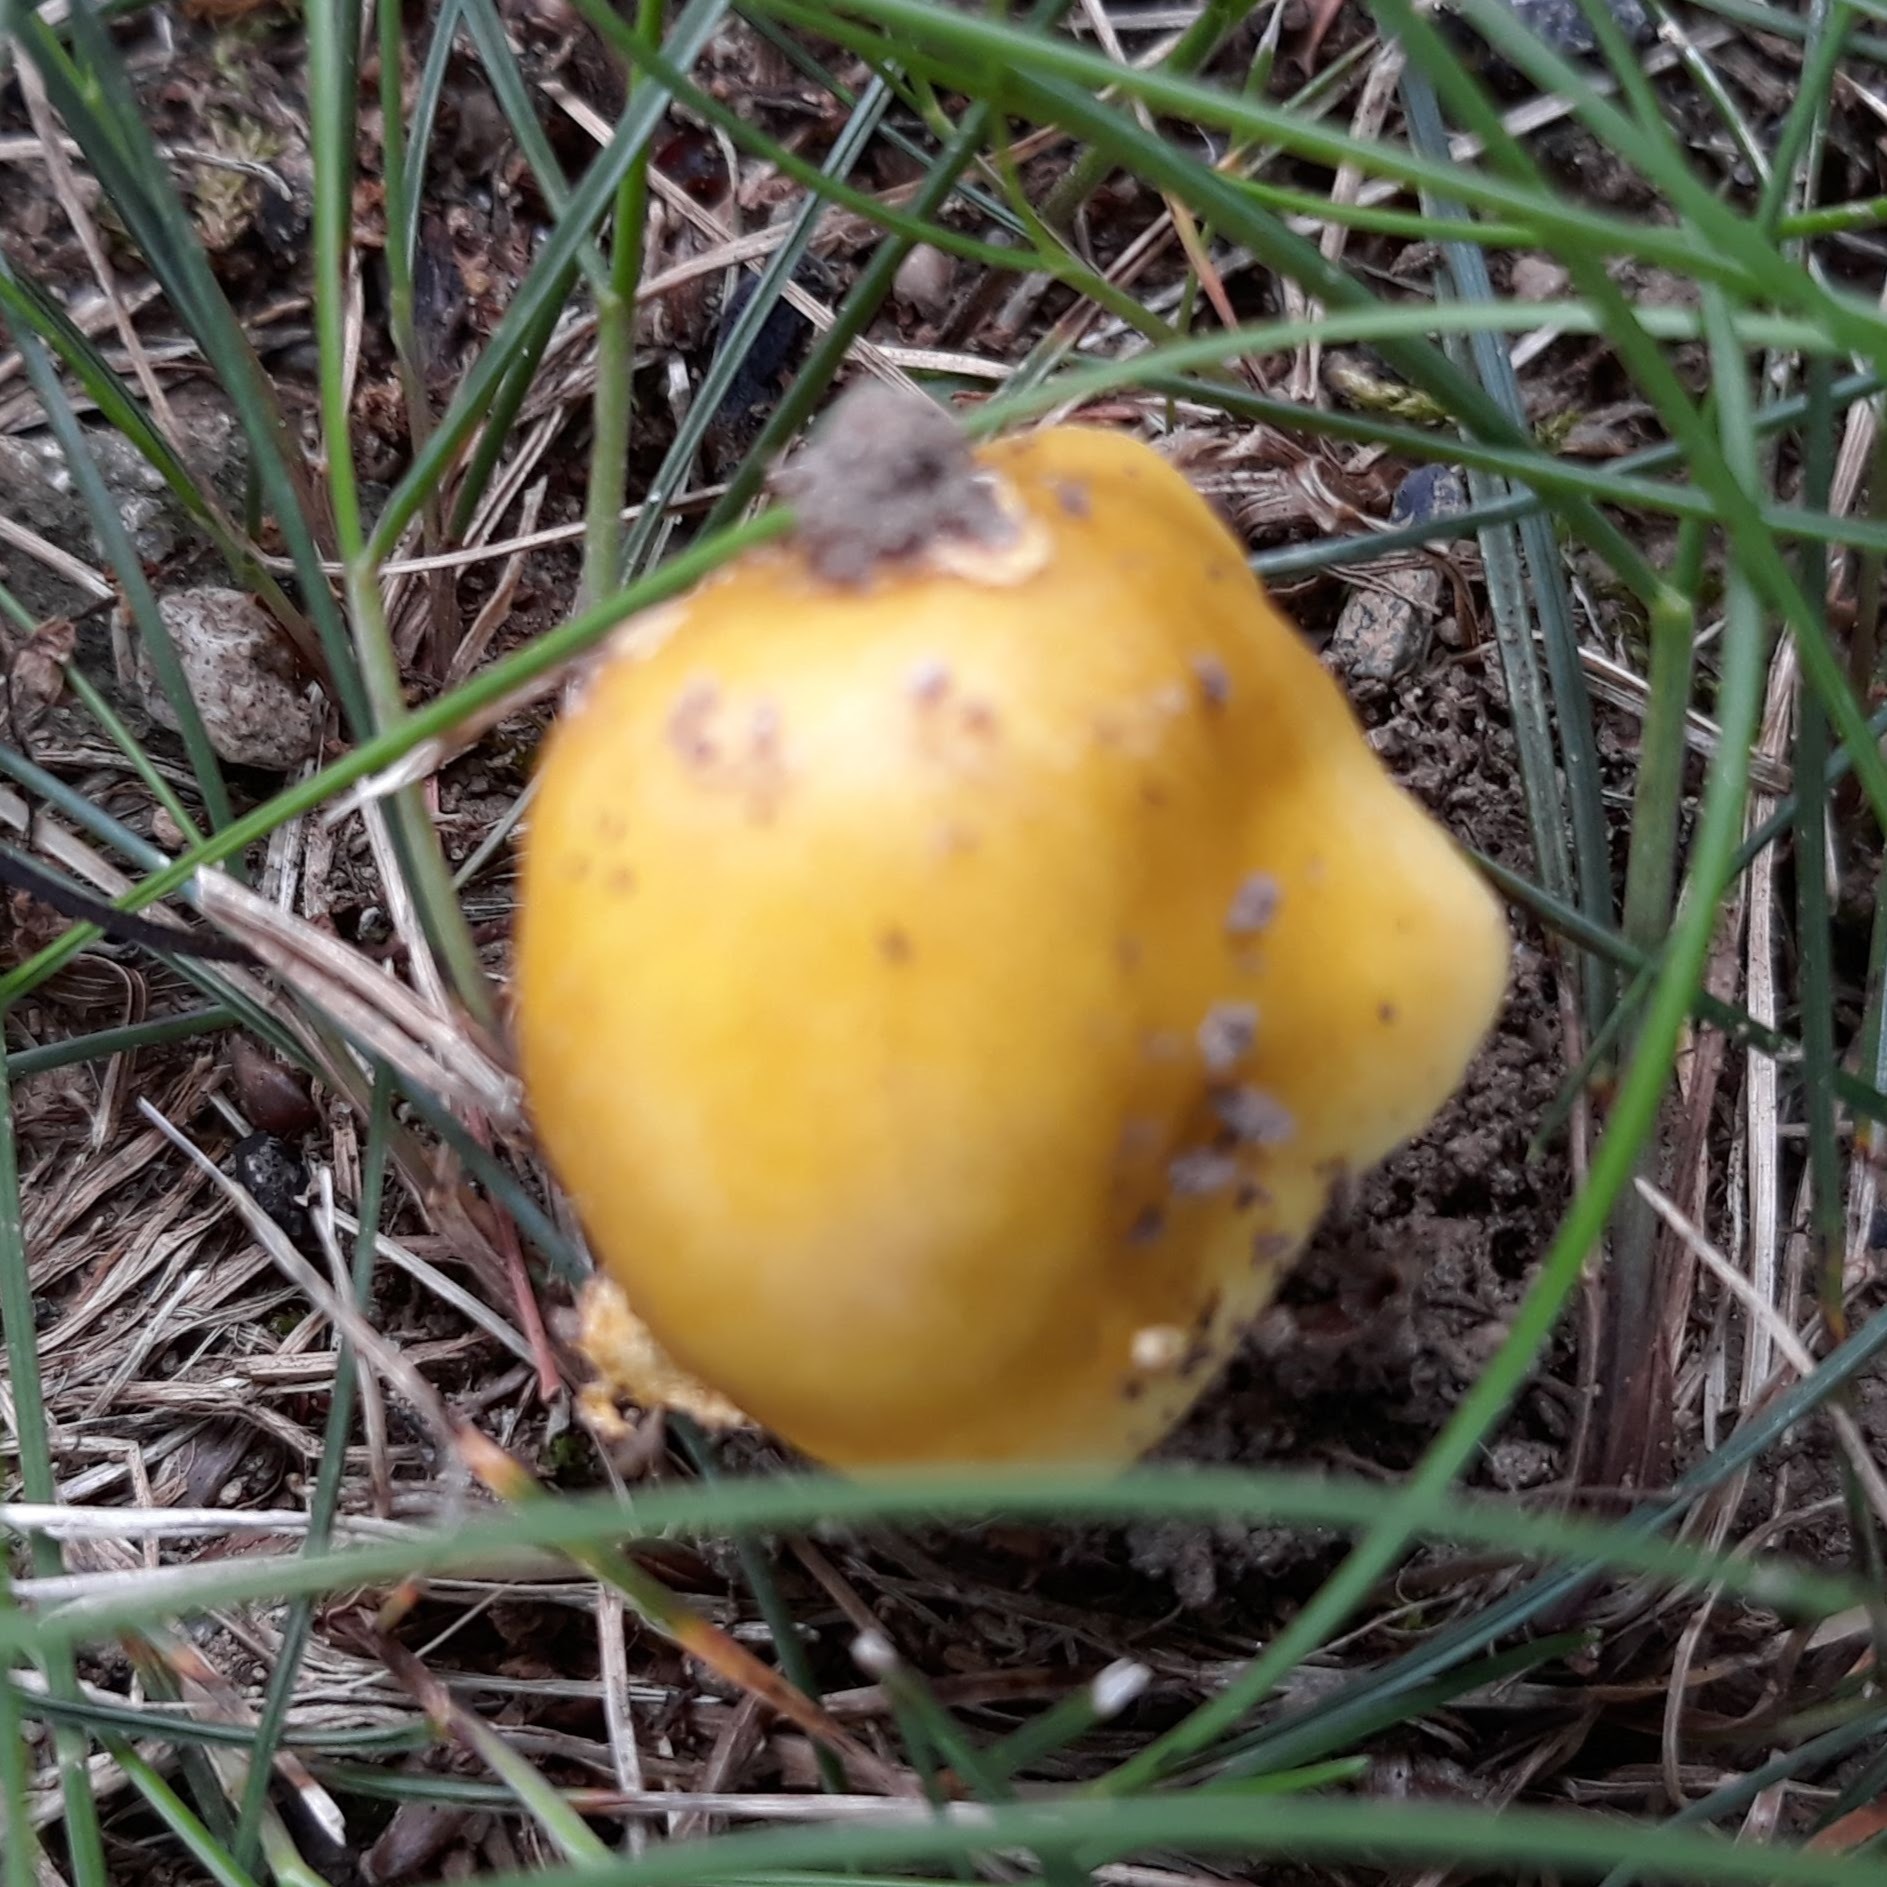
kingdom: Fungi
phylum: Basidiomycota
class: Agaricomycetes
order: Agaricales
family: Amanitaceae
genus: Amanita
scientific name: Amanita flavorubens
